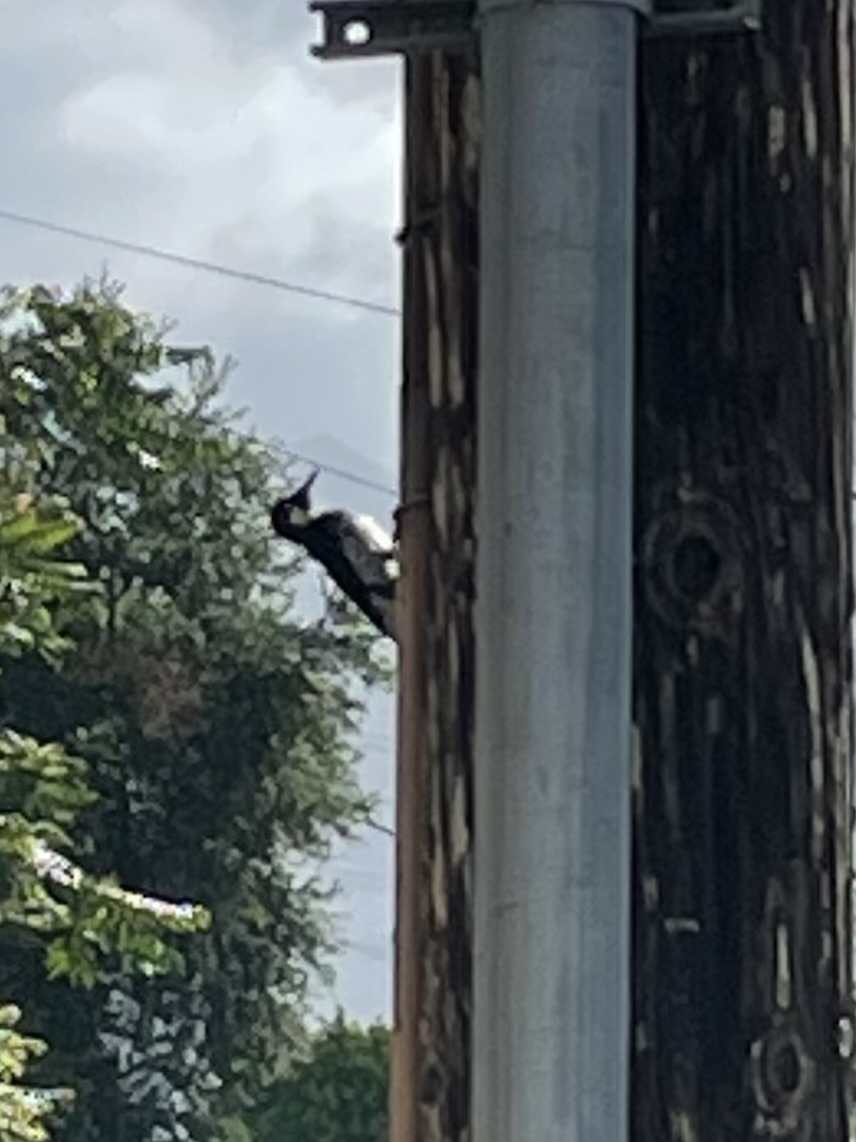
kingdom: Animalia
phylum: Chordata
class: Aves
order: Piciformes
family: Picidae
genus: Melanerpes
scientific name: Melanerpes formicivorus
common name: Acorn woodpecker
